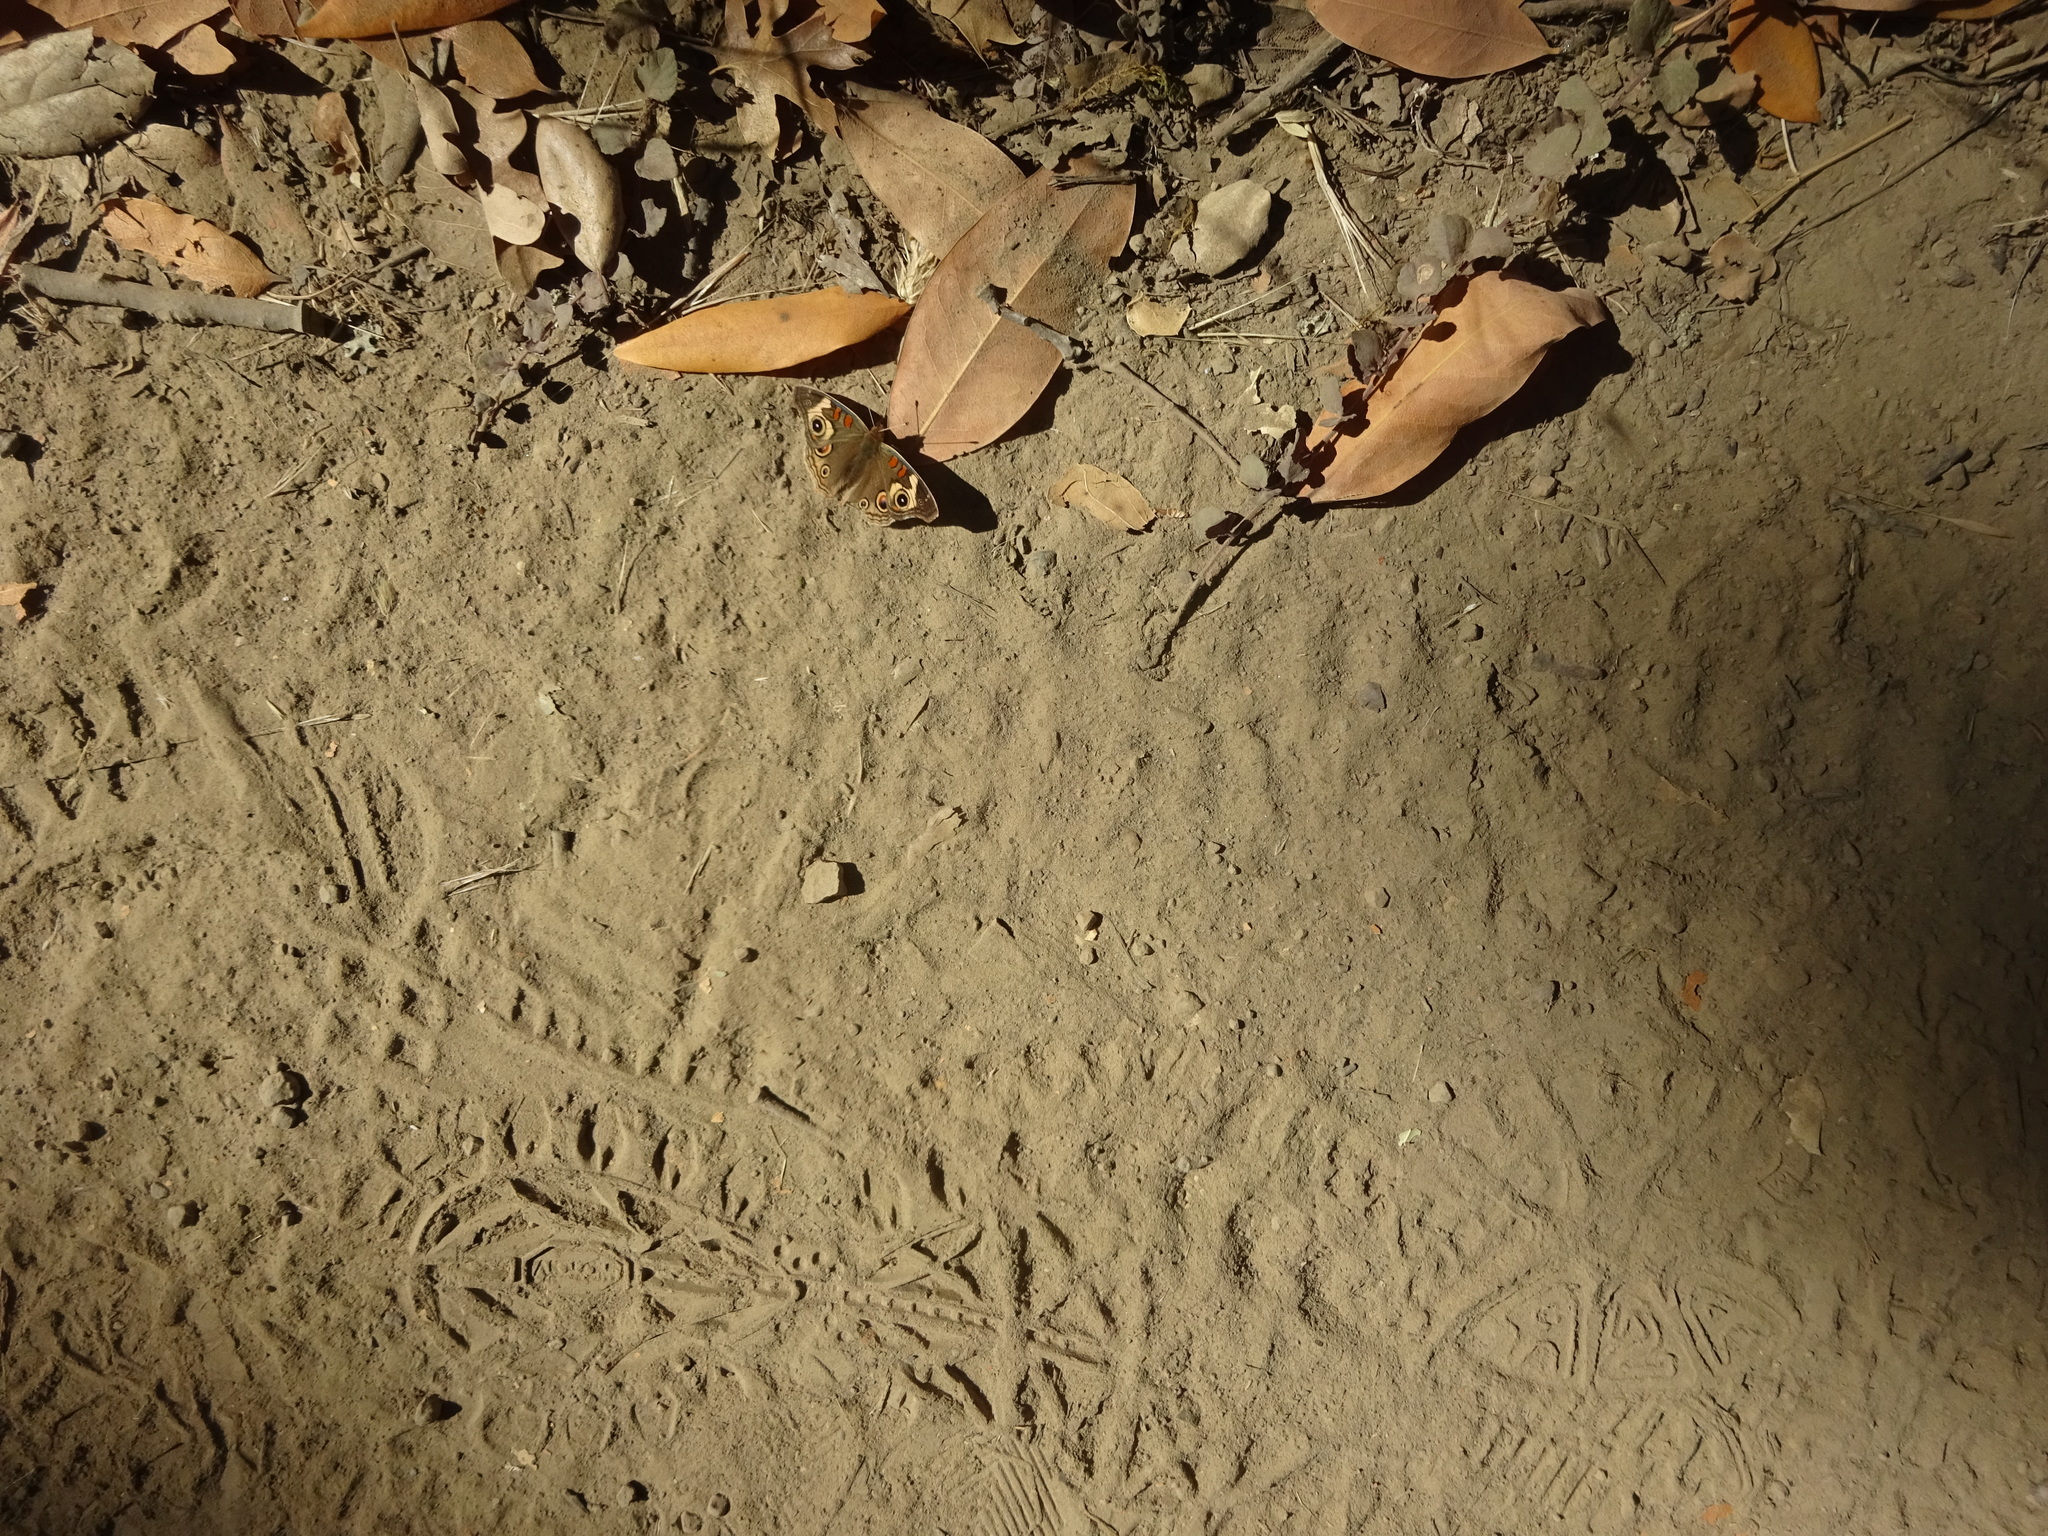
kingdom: Animalia
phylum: Arthropoda
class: Insecta
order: Lepidoptera
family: Nymphalidae
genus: Junonia
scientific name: Junonia grisea
